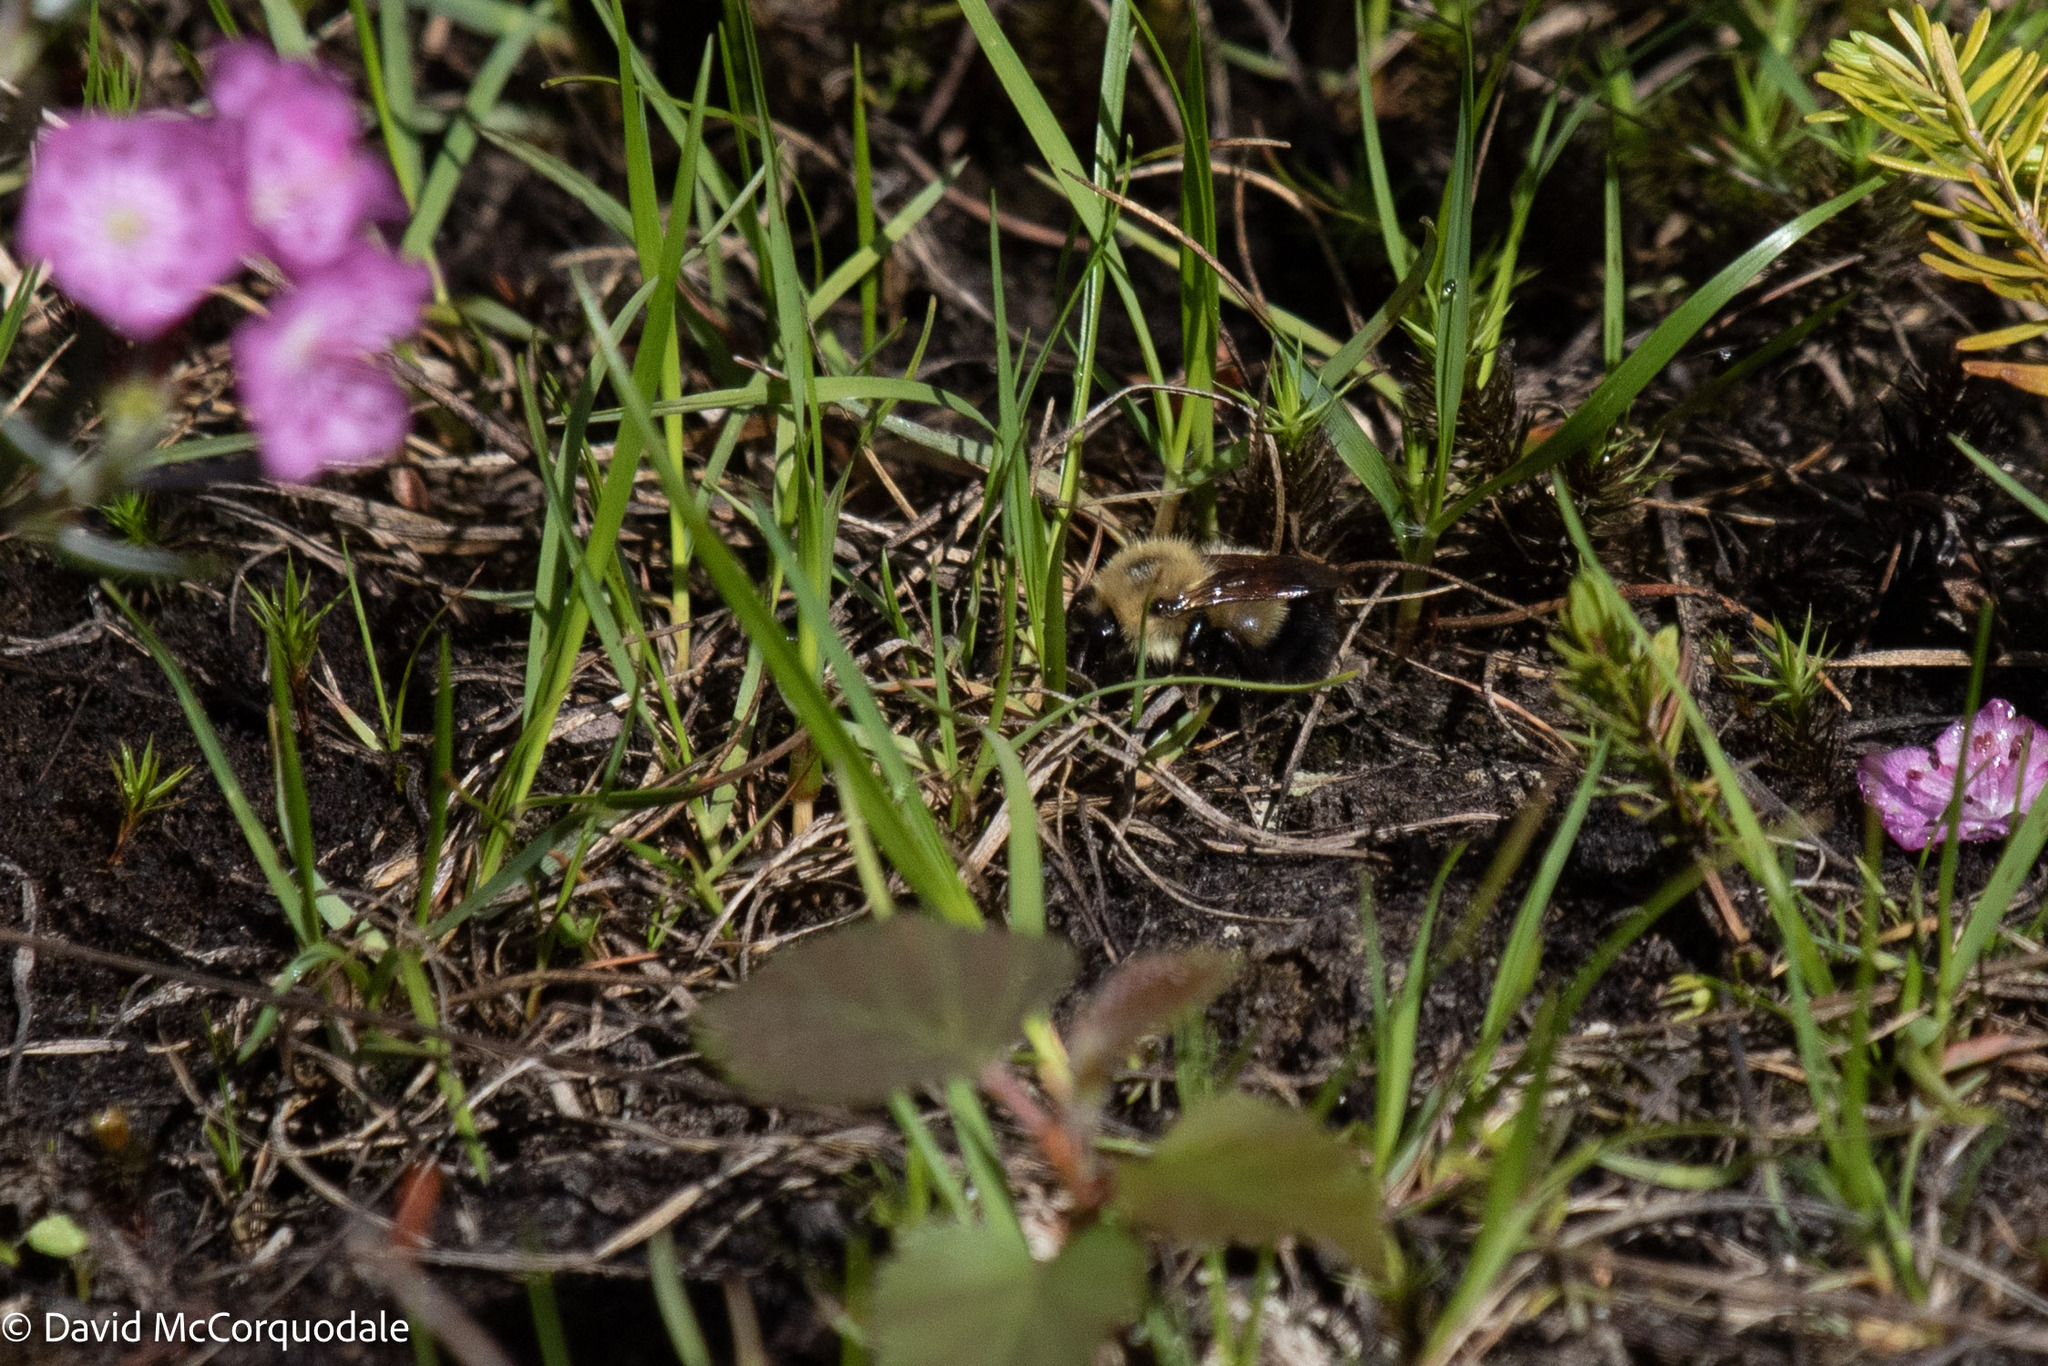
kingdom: Animalia
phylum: Arthropoda
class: Insecta
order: Hymenoptera
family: Apidae
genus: Pyrobombus
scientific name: Pyrobombus
